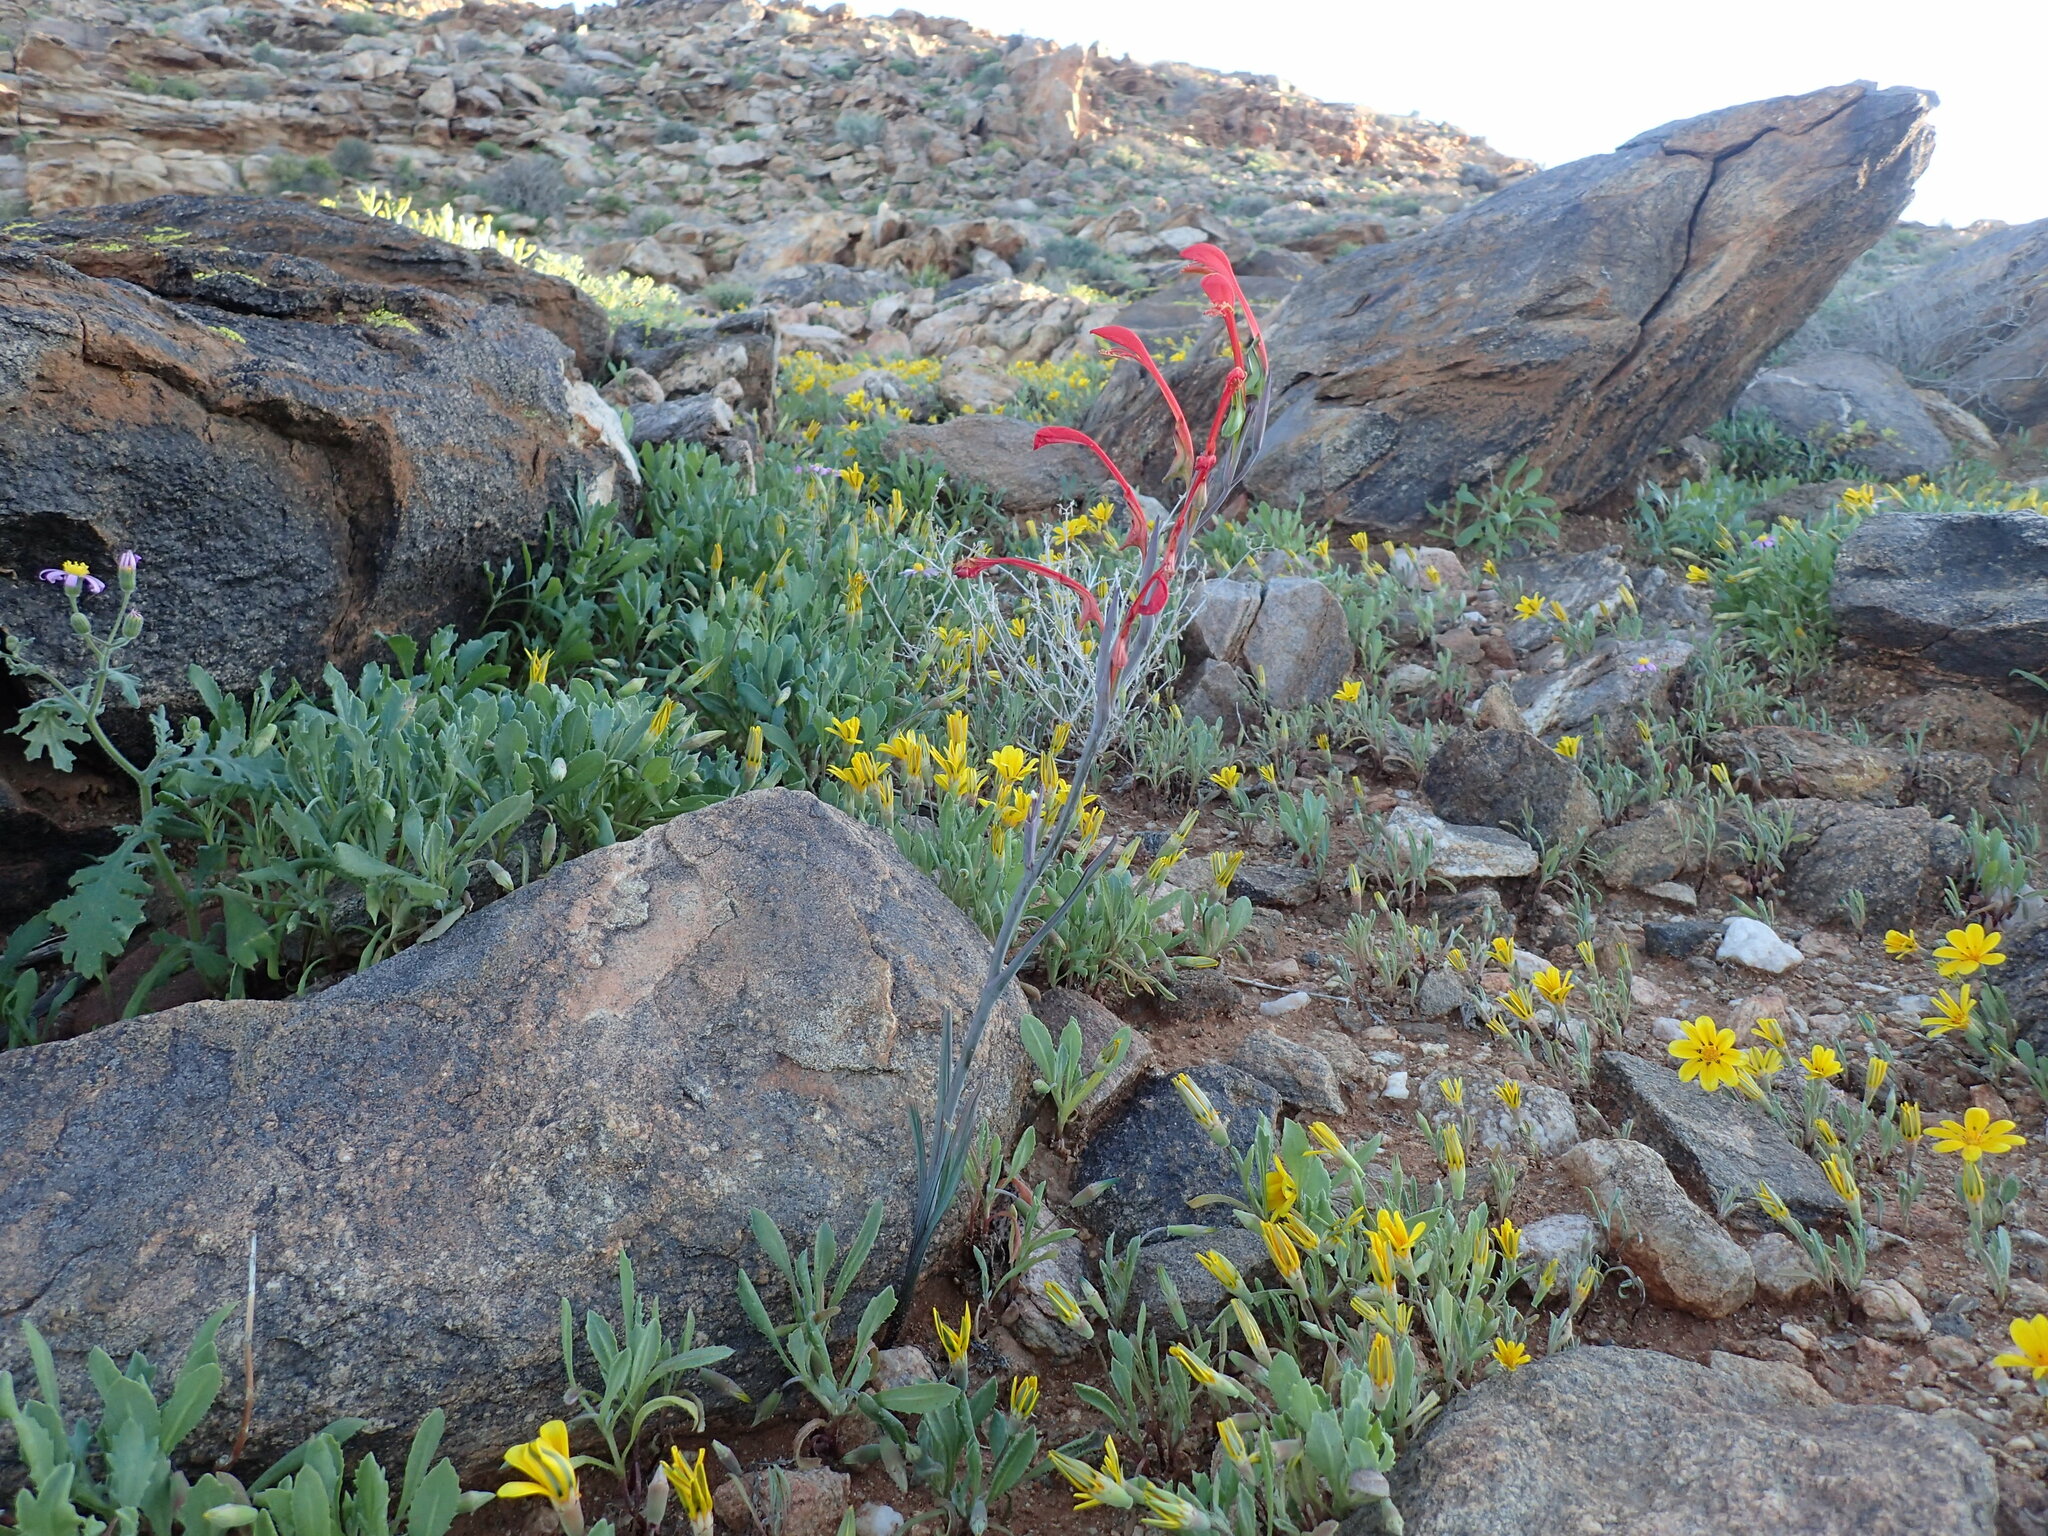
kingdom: Plantae
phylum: Tracheophyta
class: Liliopsida
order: Asparagales
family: Iridaceae
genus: Gladiolus
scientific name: Gladiolus saccatus
